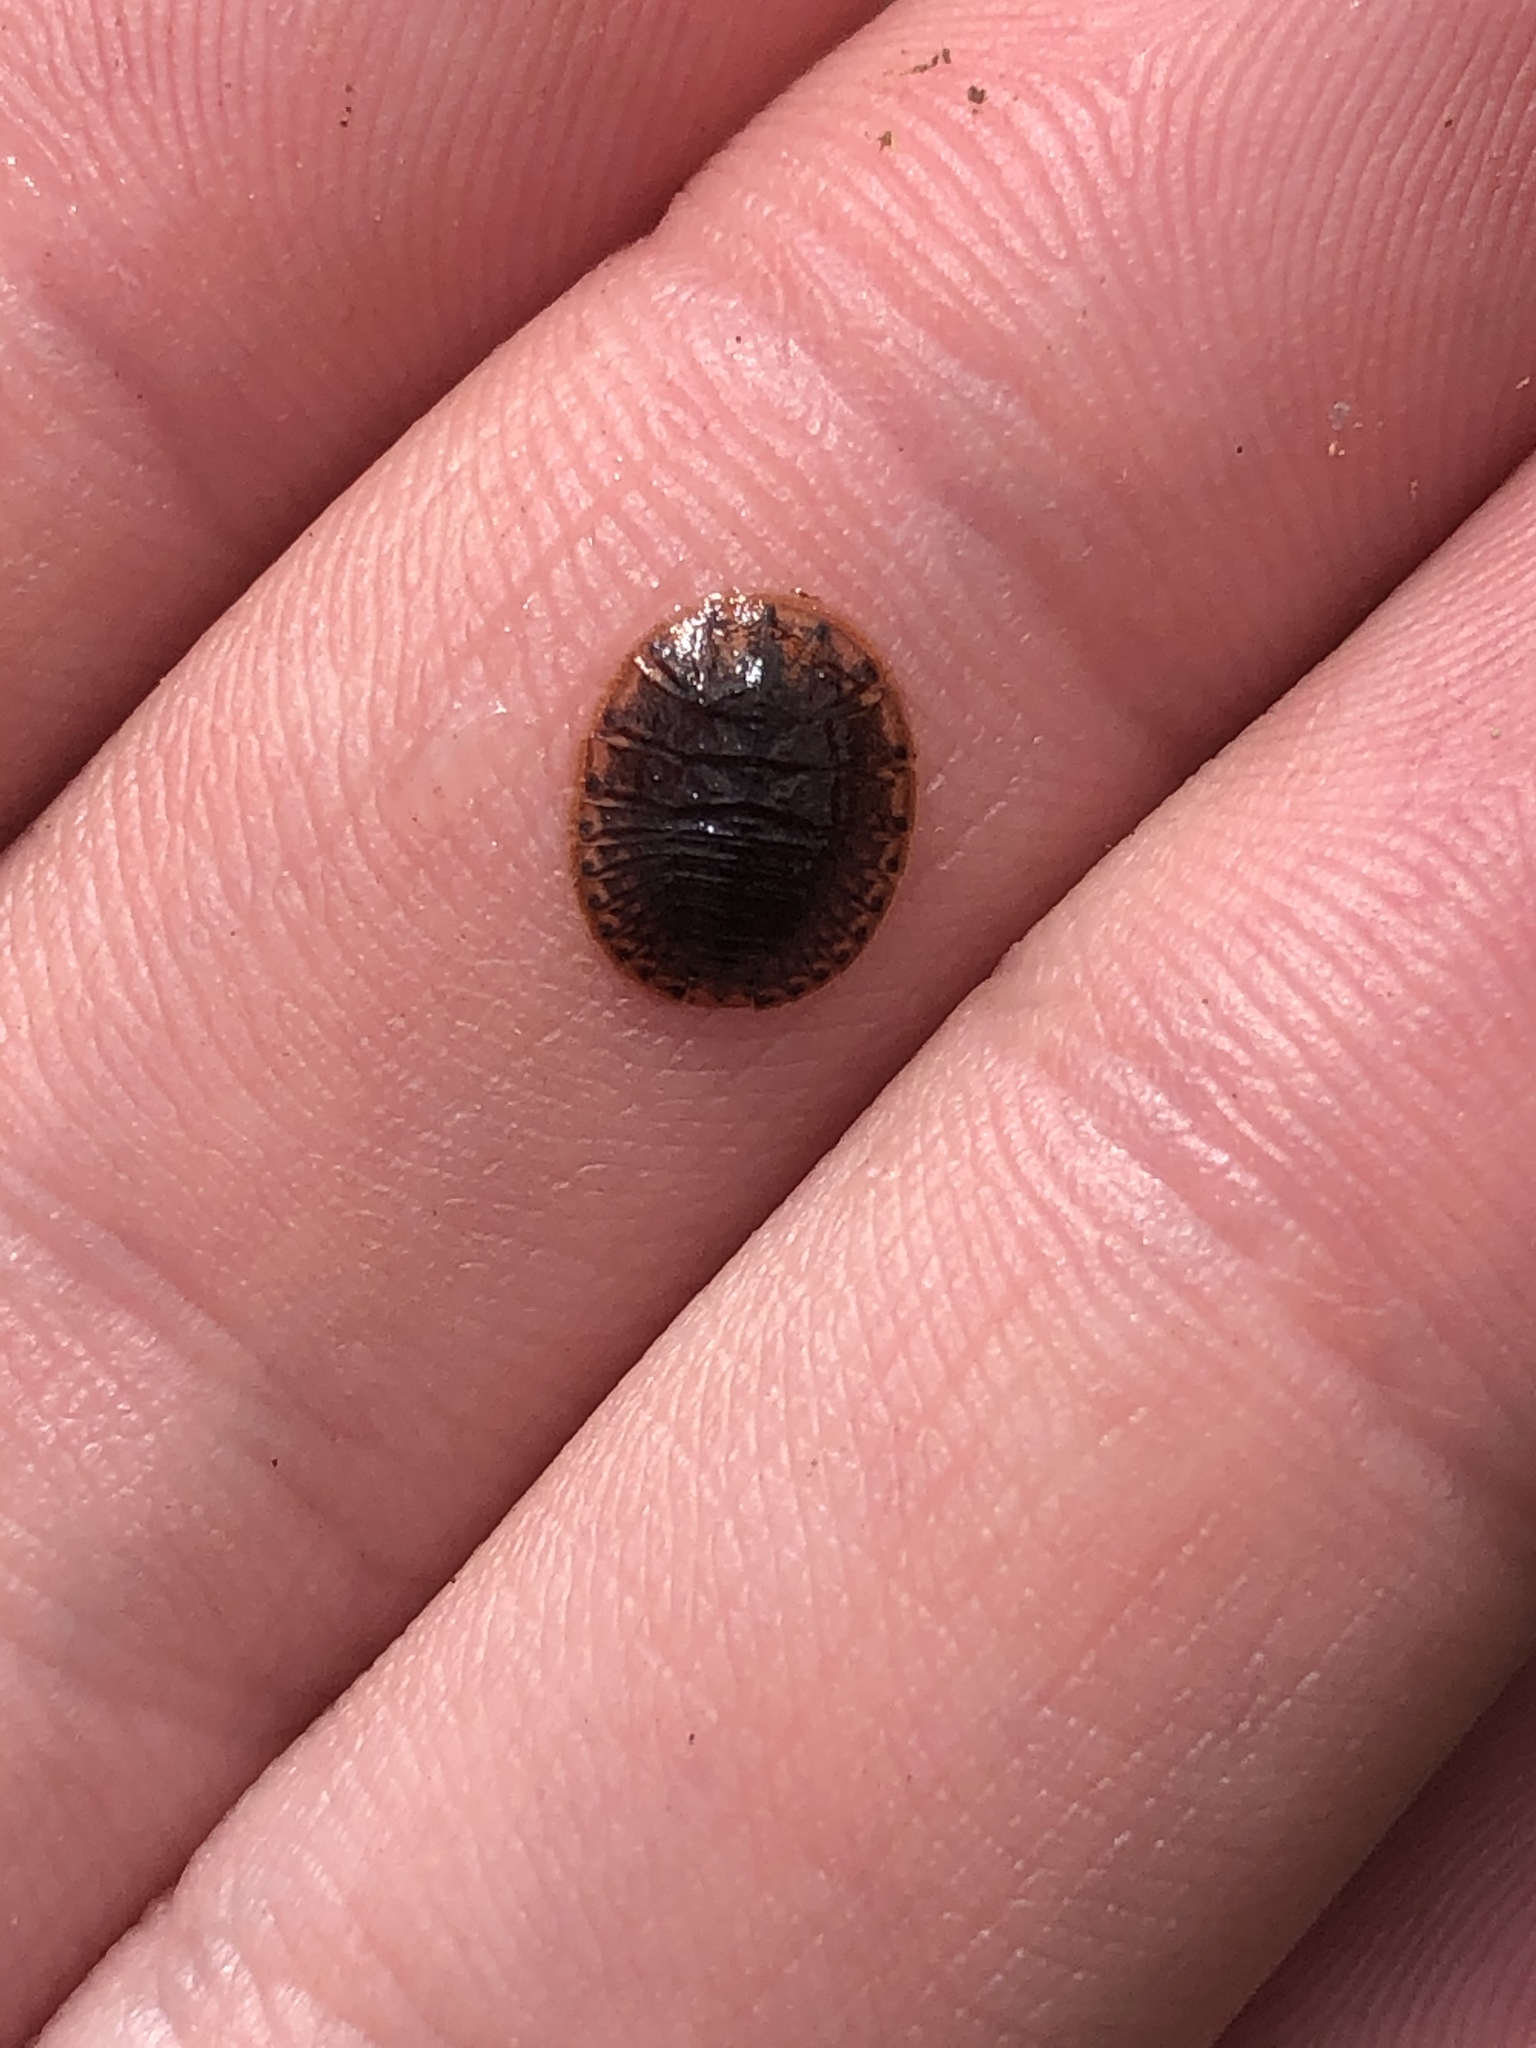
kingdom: Animalia
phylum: Arthropoda
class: Insecta
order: Coleoptera
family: Psephenidae
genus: Psephenus
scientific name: Psephenus herricki
